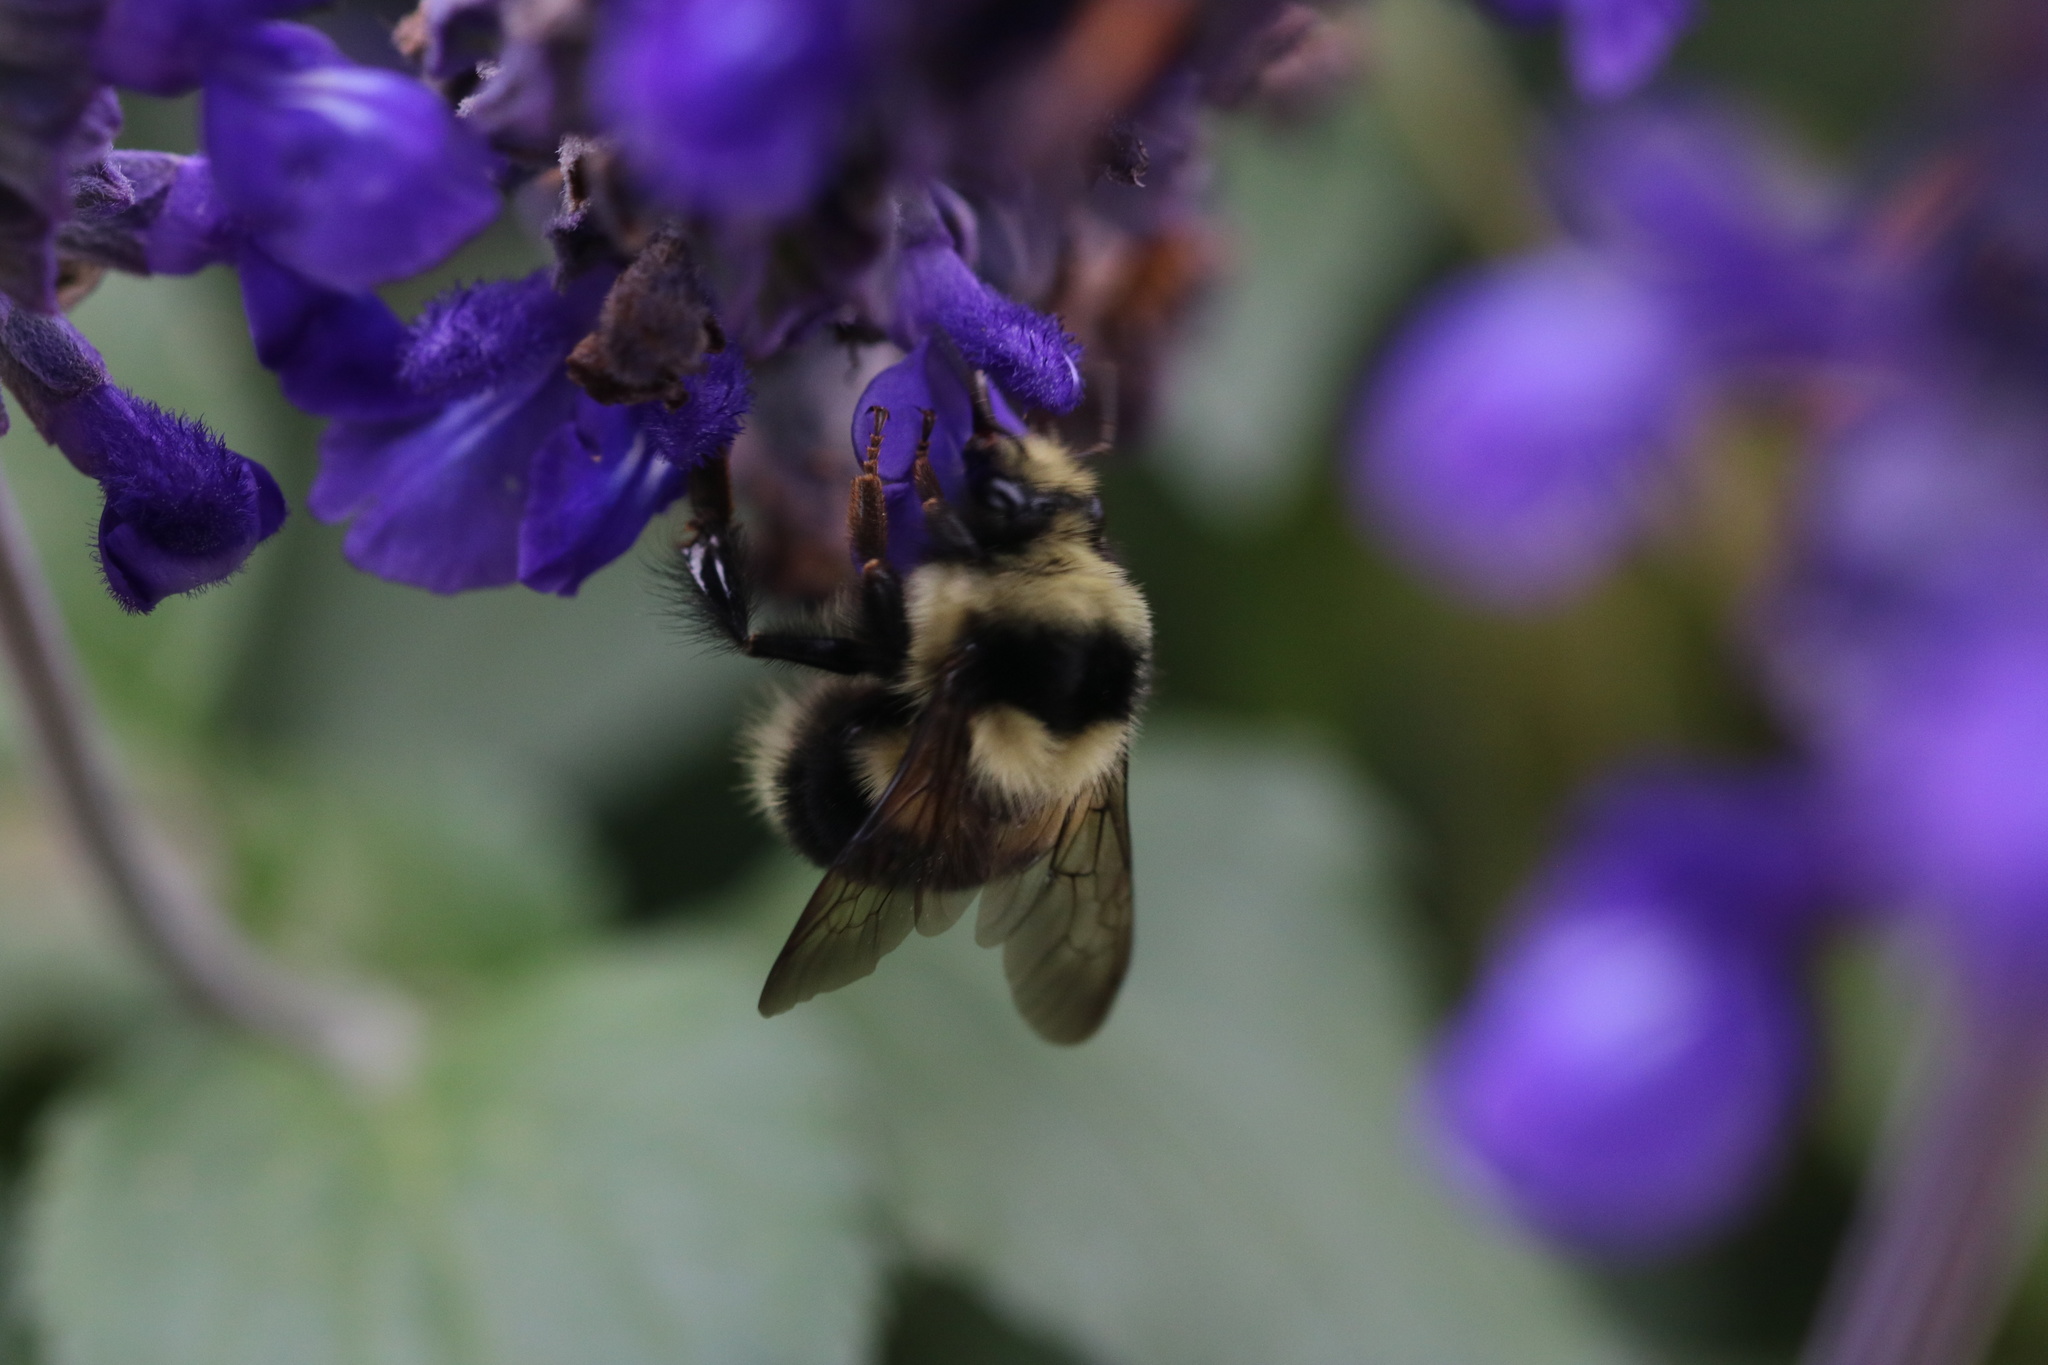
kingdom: Animalia
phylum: Arthropoda
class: Insecta
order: Hymenoptera
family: Apidae
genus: Bombus
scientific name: Bombus melanopygus
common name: Black tail bumble bee
